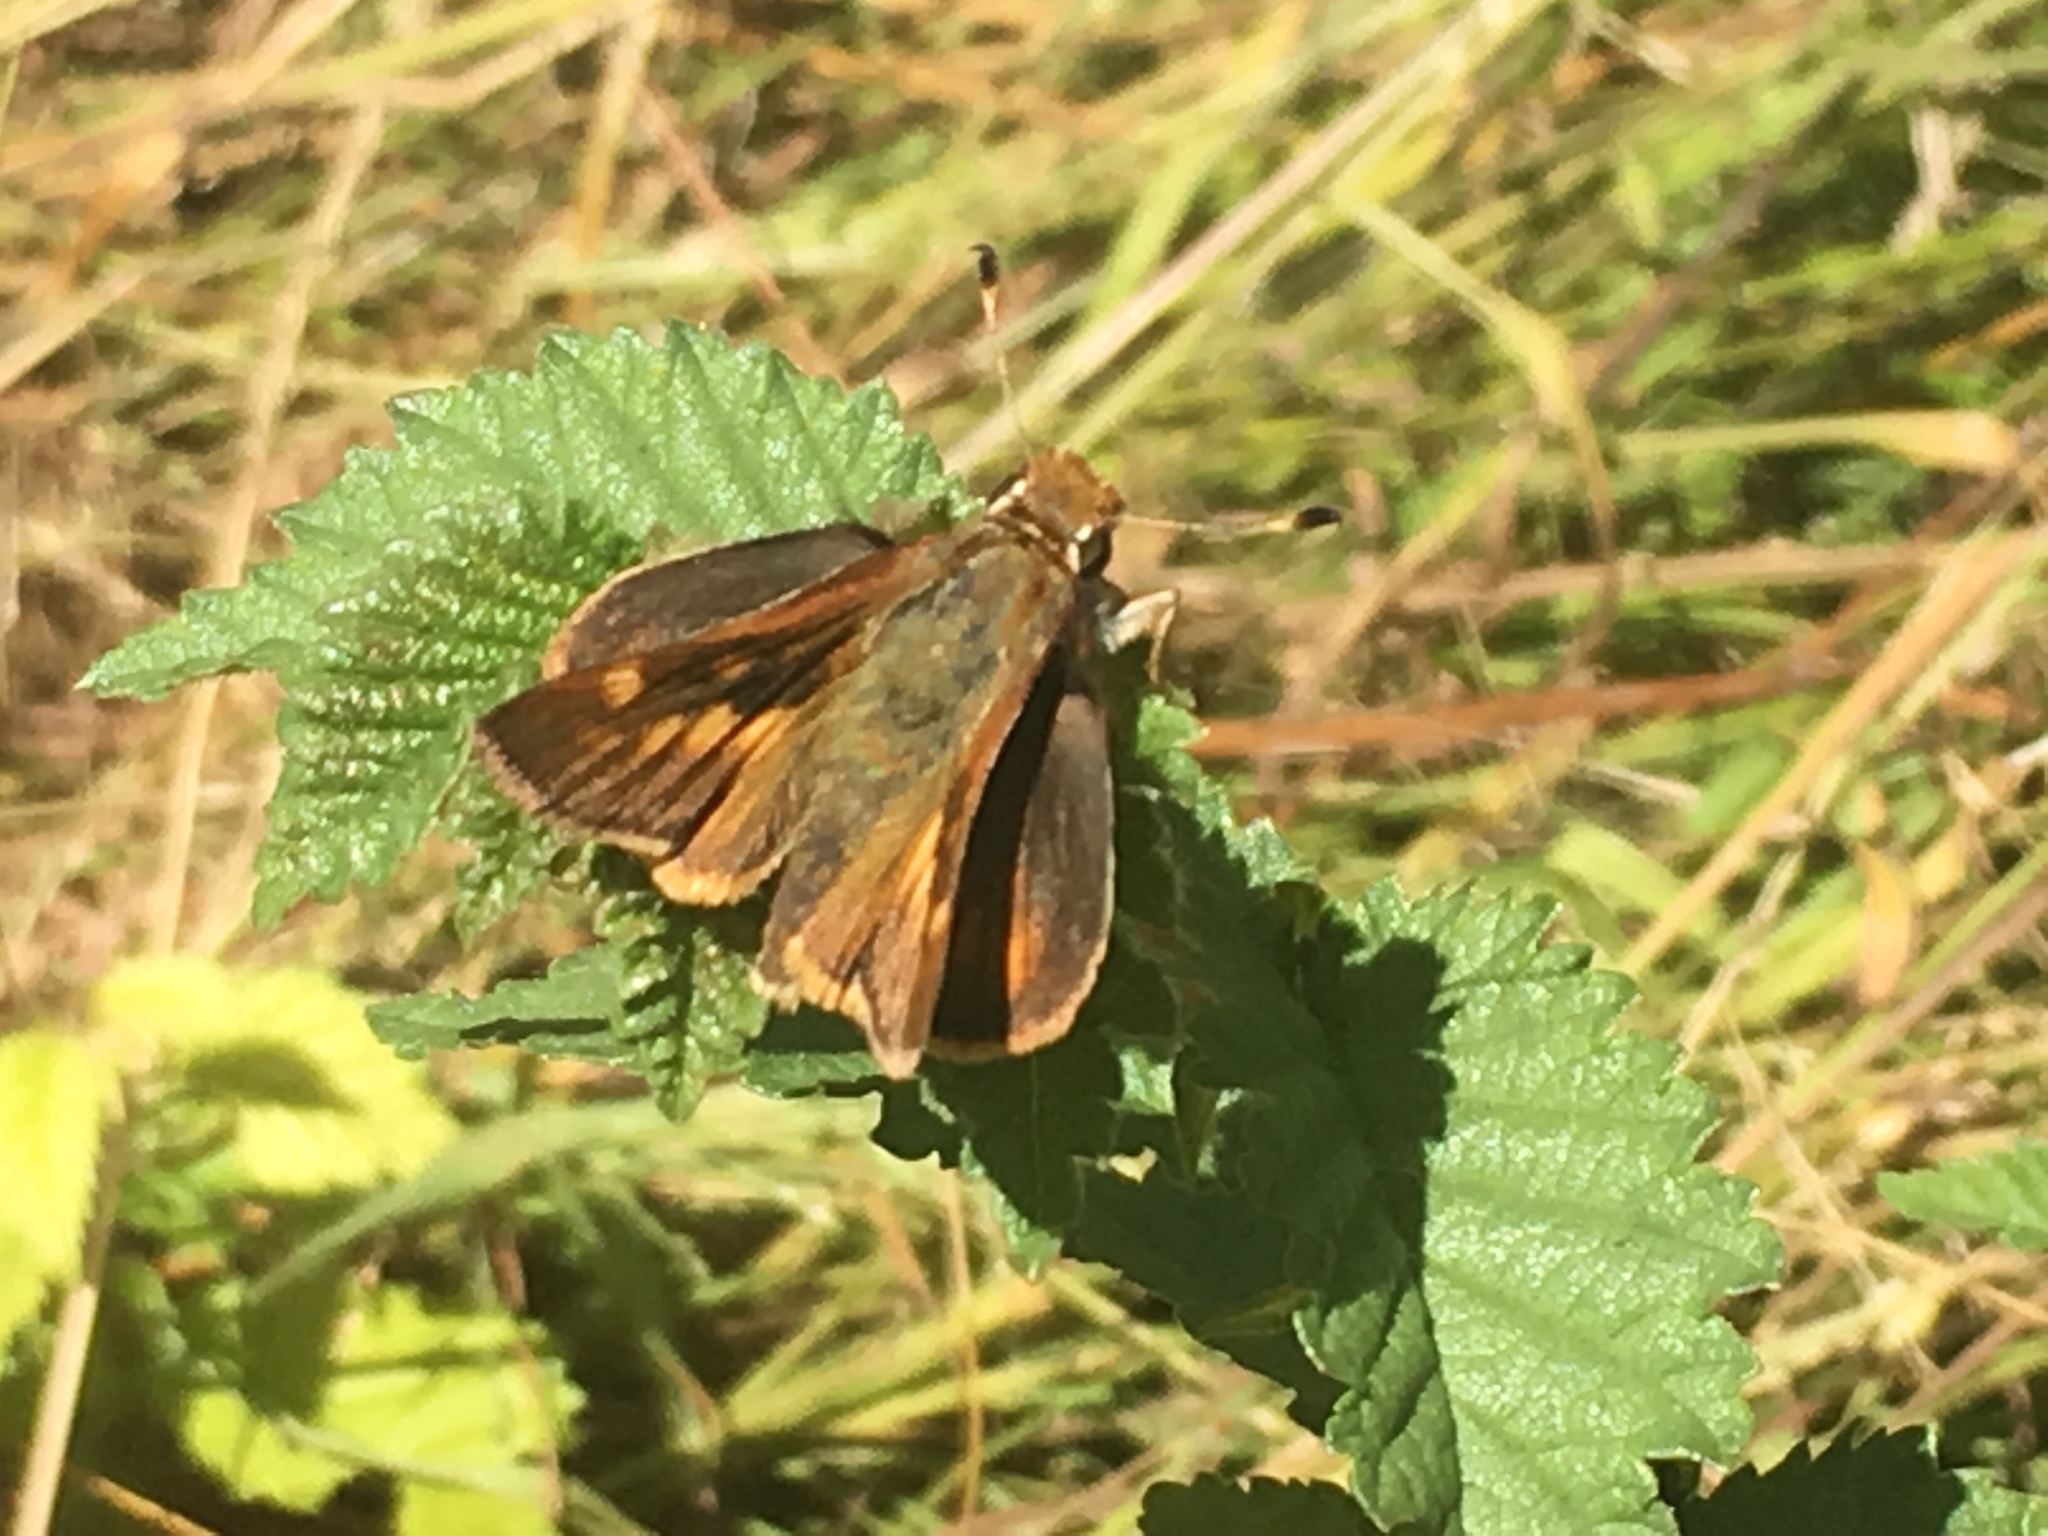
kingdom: Animalia
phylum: Arthropoda
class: Insecta
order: Lepidoptera
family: Hesperiidae
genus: Lon
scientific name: Lon melane
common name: Umber skipper
